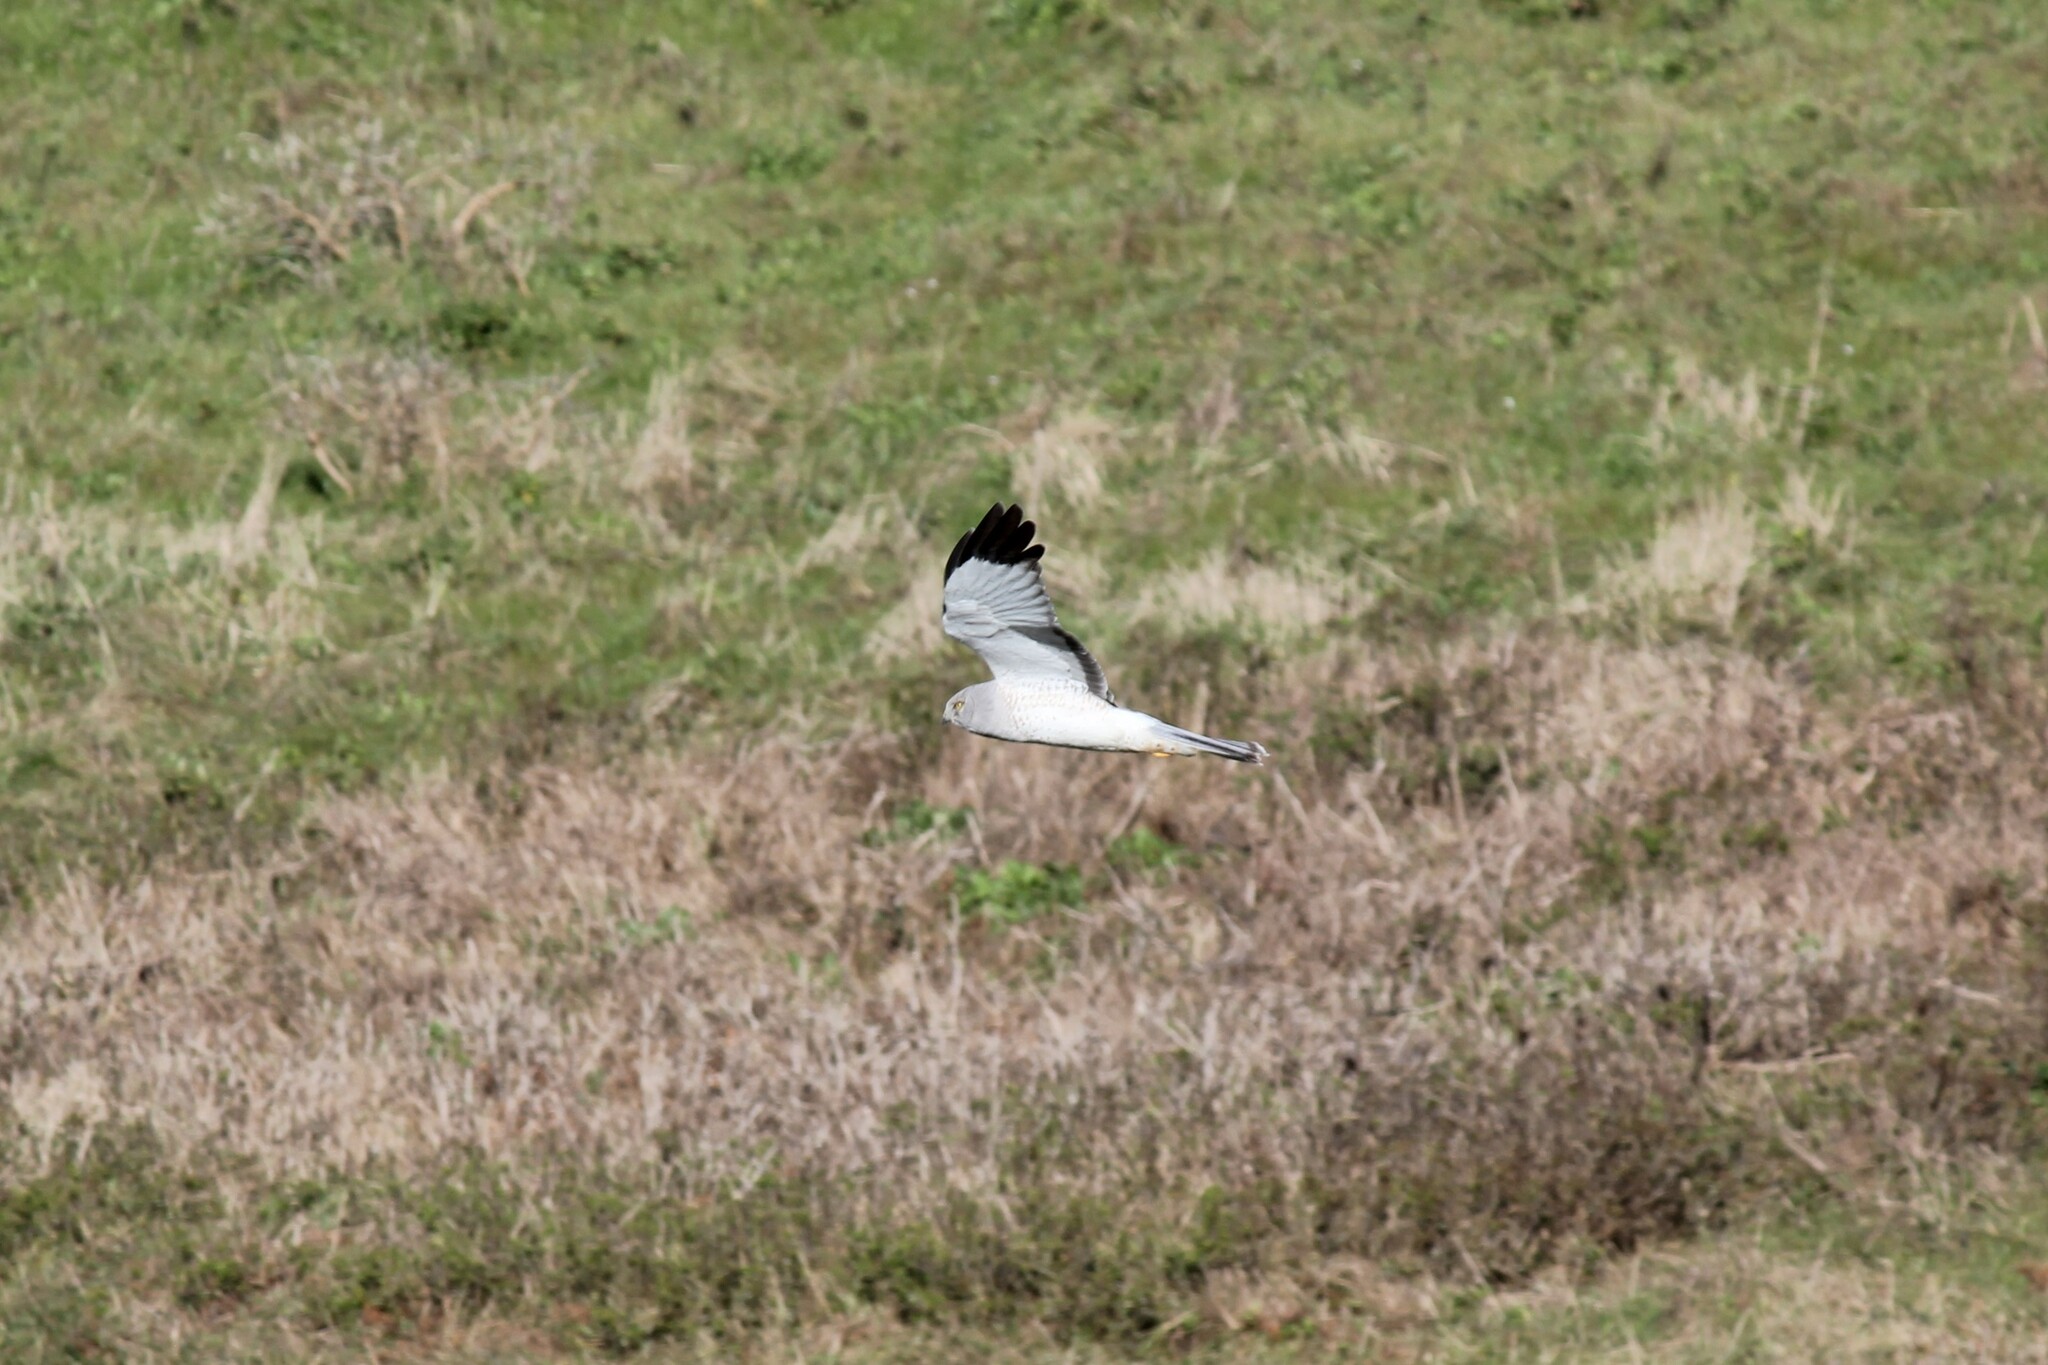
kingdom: Animalia
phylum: Chordata
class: Aves
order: Accipitriformes
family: Accipitridae
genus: Circus
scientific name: Circus cyaneus
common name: Hen harrier
